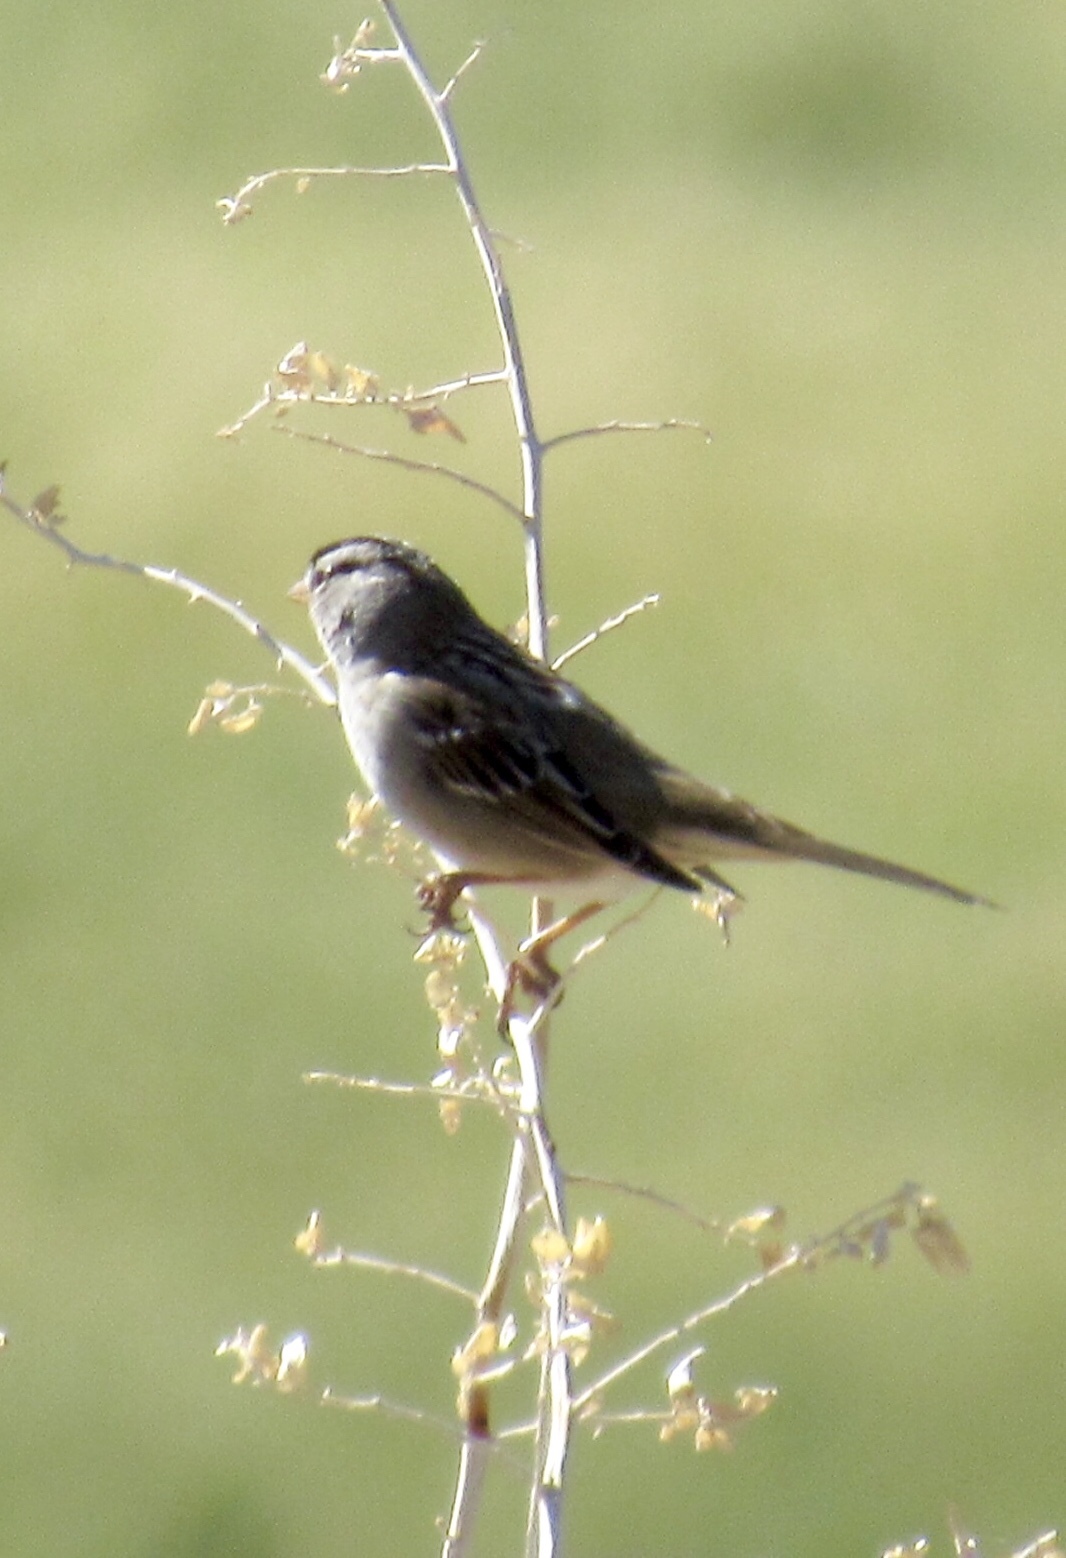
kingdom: Animalia
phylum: Chordata
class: Aves
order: Passeriformes
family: Passerellidae
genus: Zonotrichia
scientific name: Zonotrichia leucophrys
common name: White-crowned sparrow
